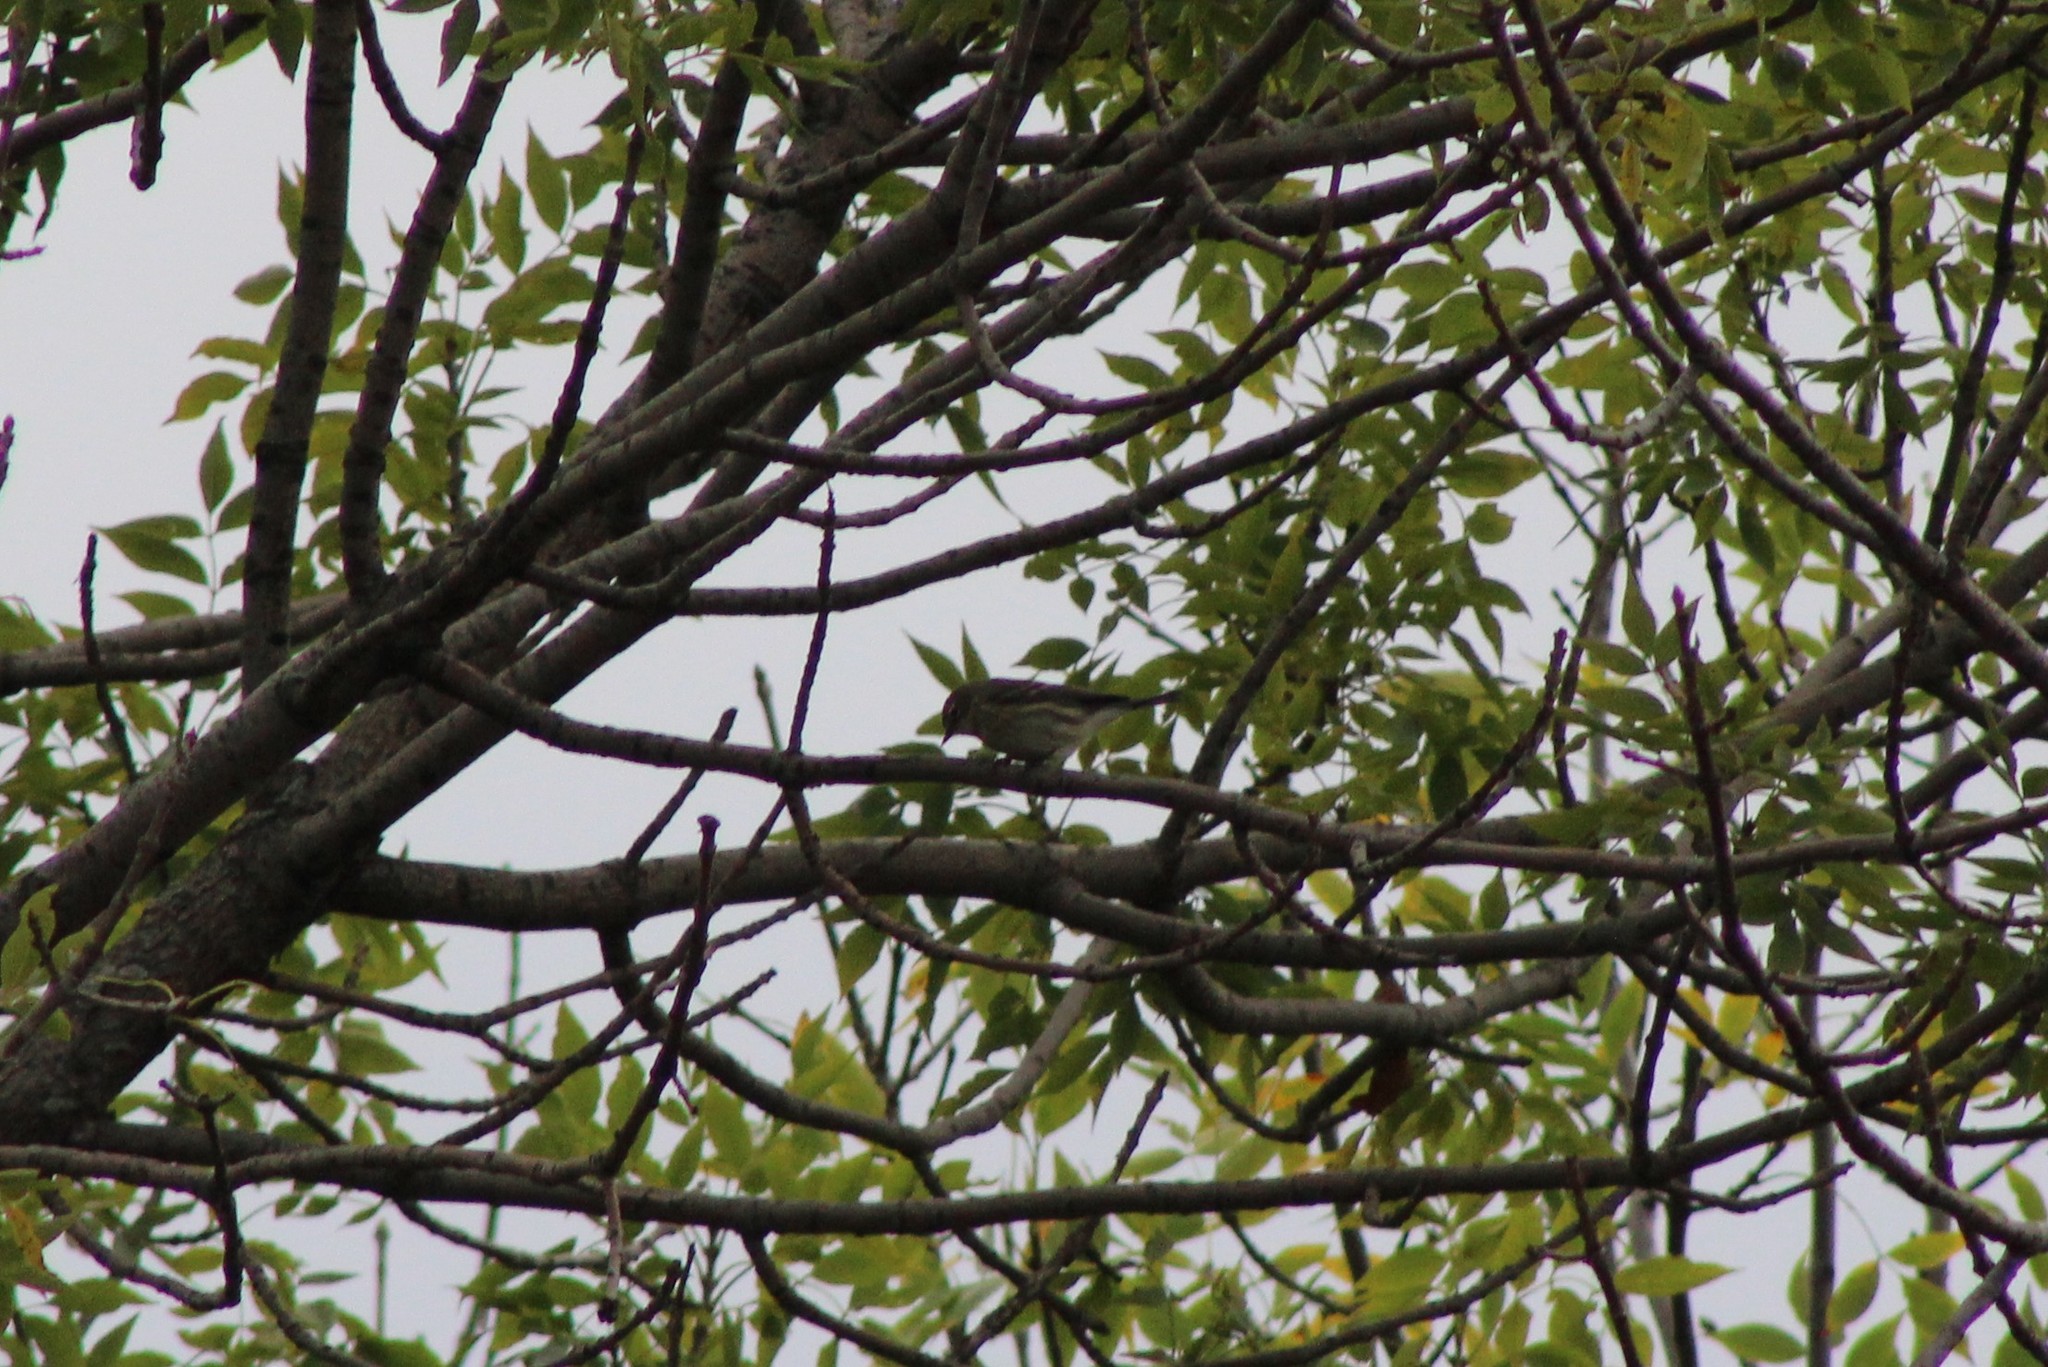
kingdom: Animalia
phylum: Chordata
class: Aves
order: Passeriformes
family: Parulidae
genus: Setophaga
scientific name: Setophaga coronata
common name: Myrtle warbler
